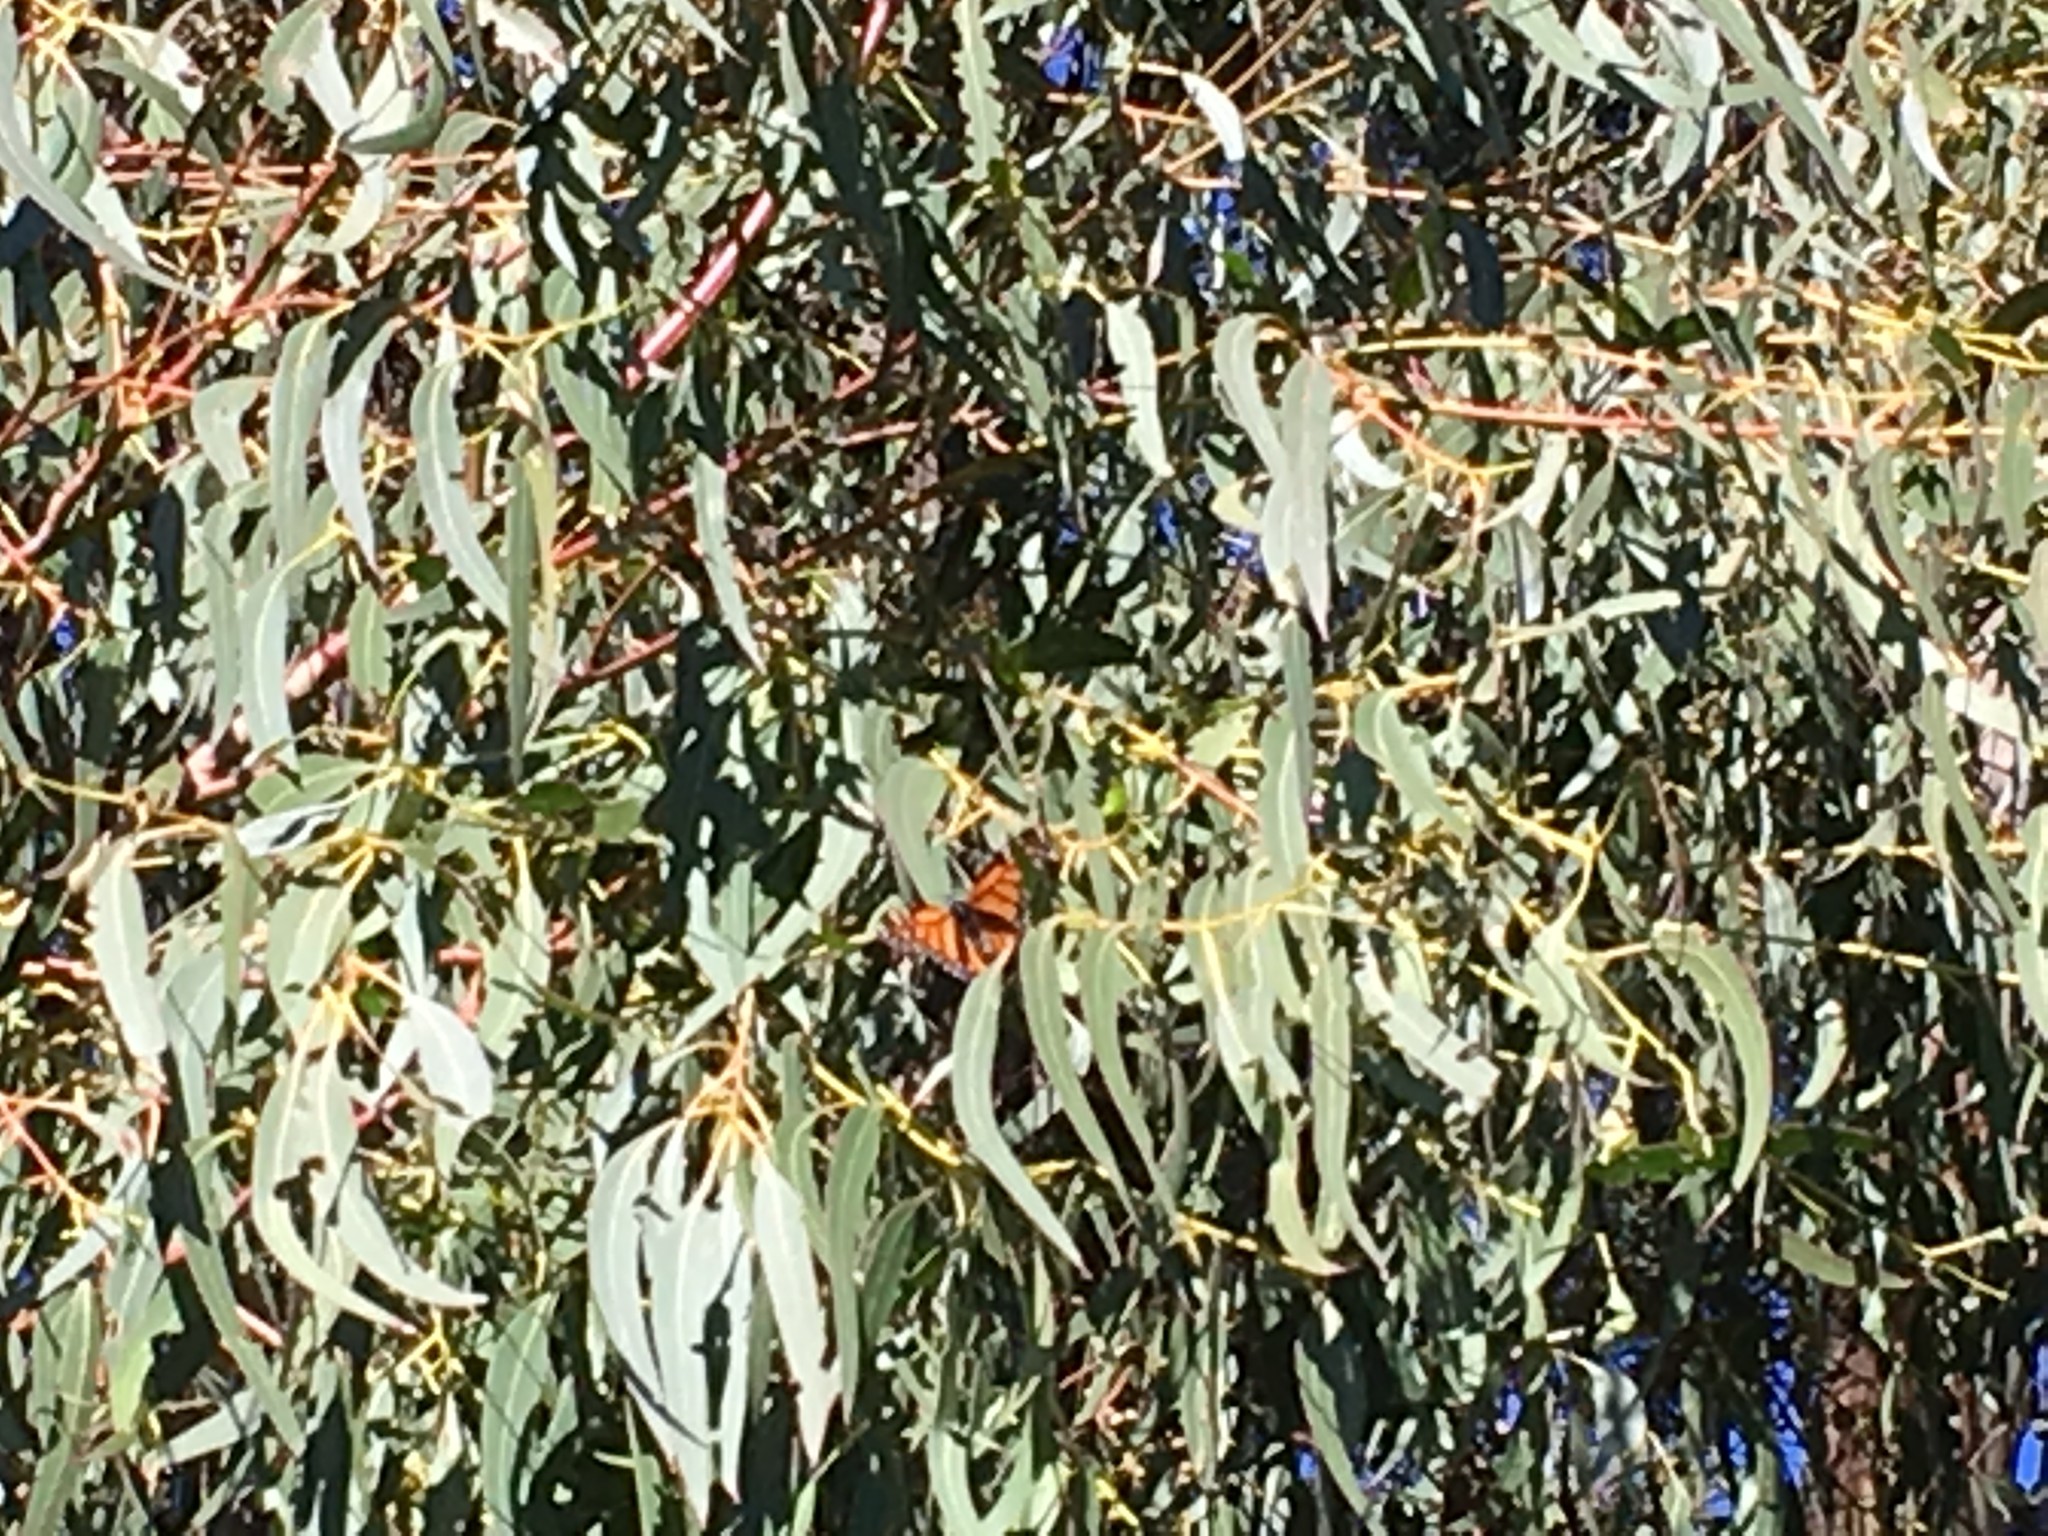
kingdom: Animalia
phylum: Arthropoda
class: Insecta
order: Lepidoptera
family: Nymphalidae
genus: Danaus
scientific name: Danaus plexippus
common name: Monarch
